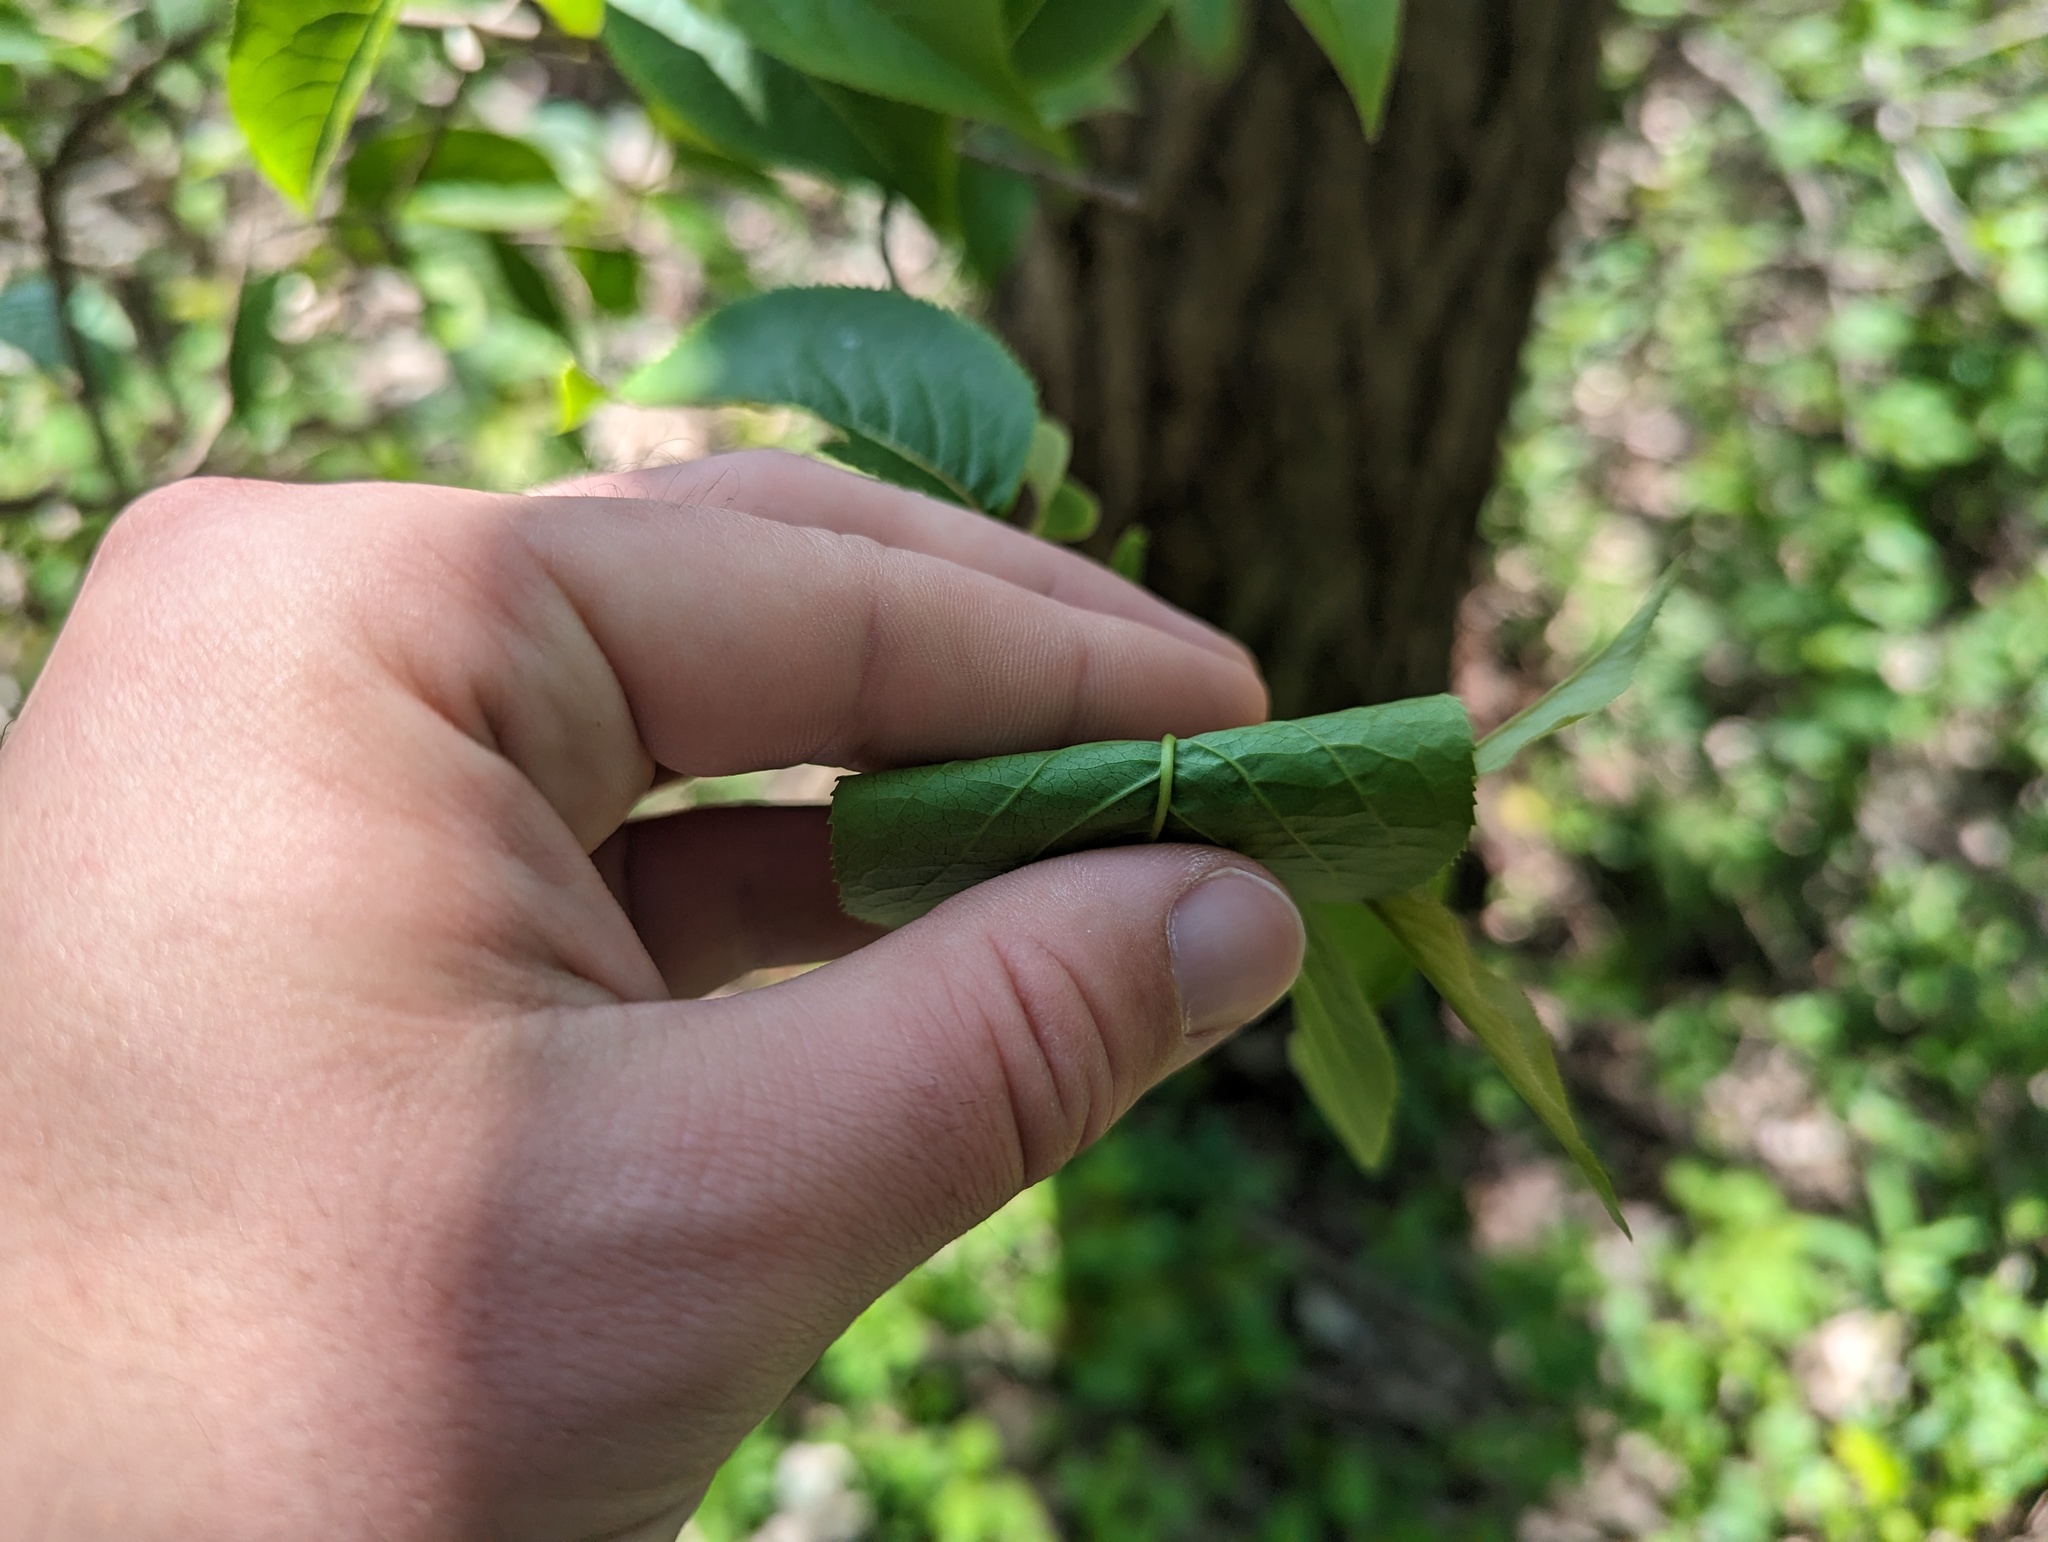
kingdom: Plantae
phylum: Tracheophyta
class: Magnoliopsida
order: Dipsacales
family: Viburnaceae
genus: Viburnum
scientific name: Viburnum lentago
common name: Black haw
